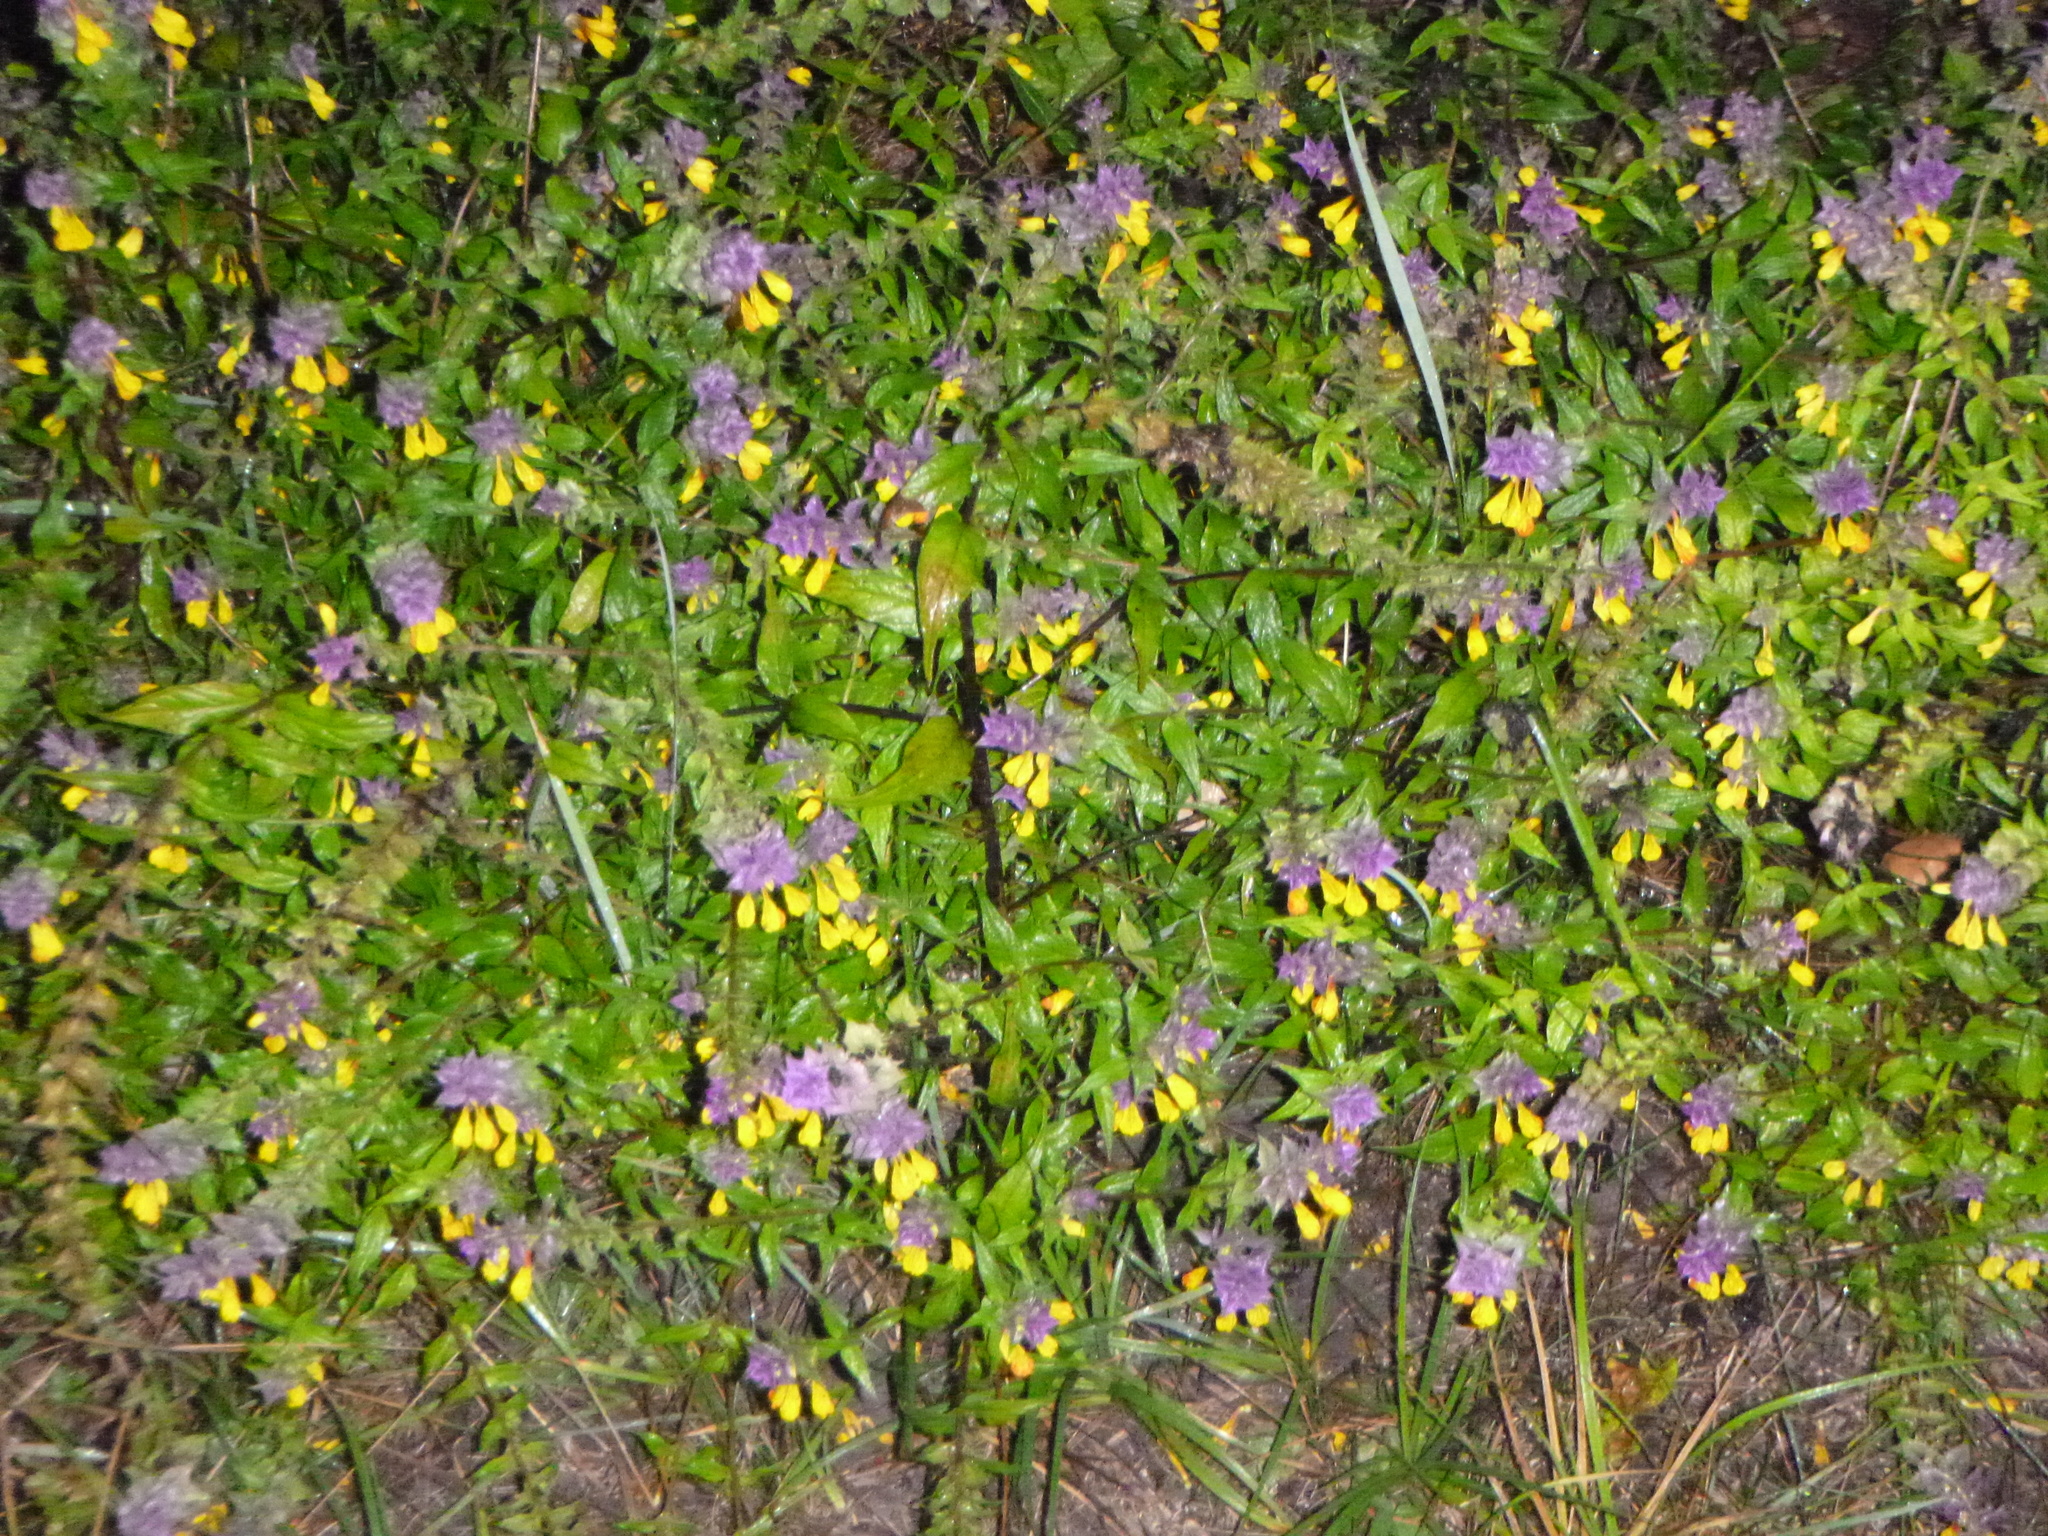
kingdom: Plantae
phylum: Tracheophyta
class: Magnoliopsida
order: Lamiales
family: Orobanchaceae
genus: Melampyrum
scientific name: Melampyrum nemorosum
